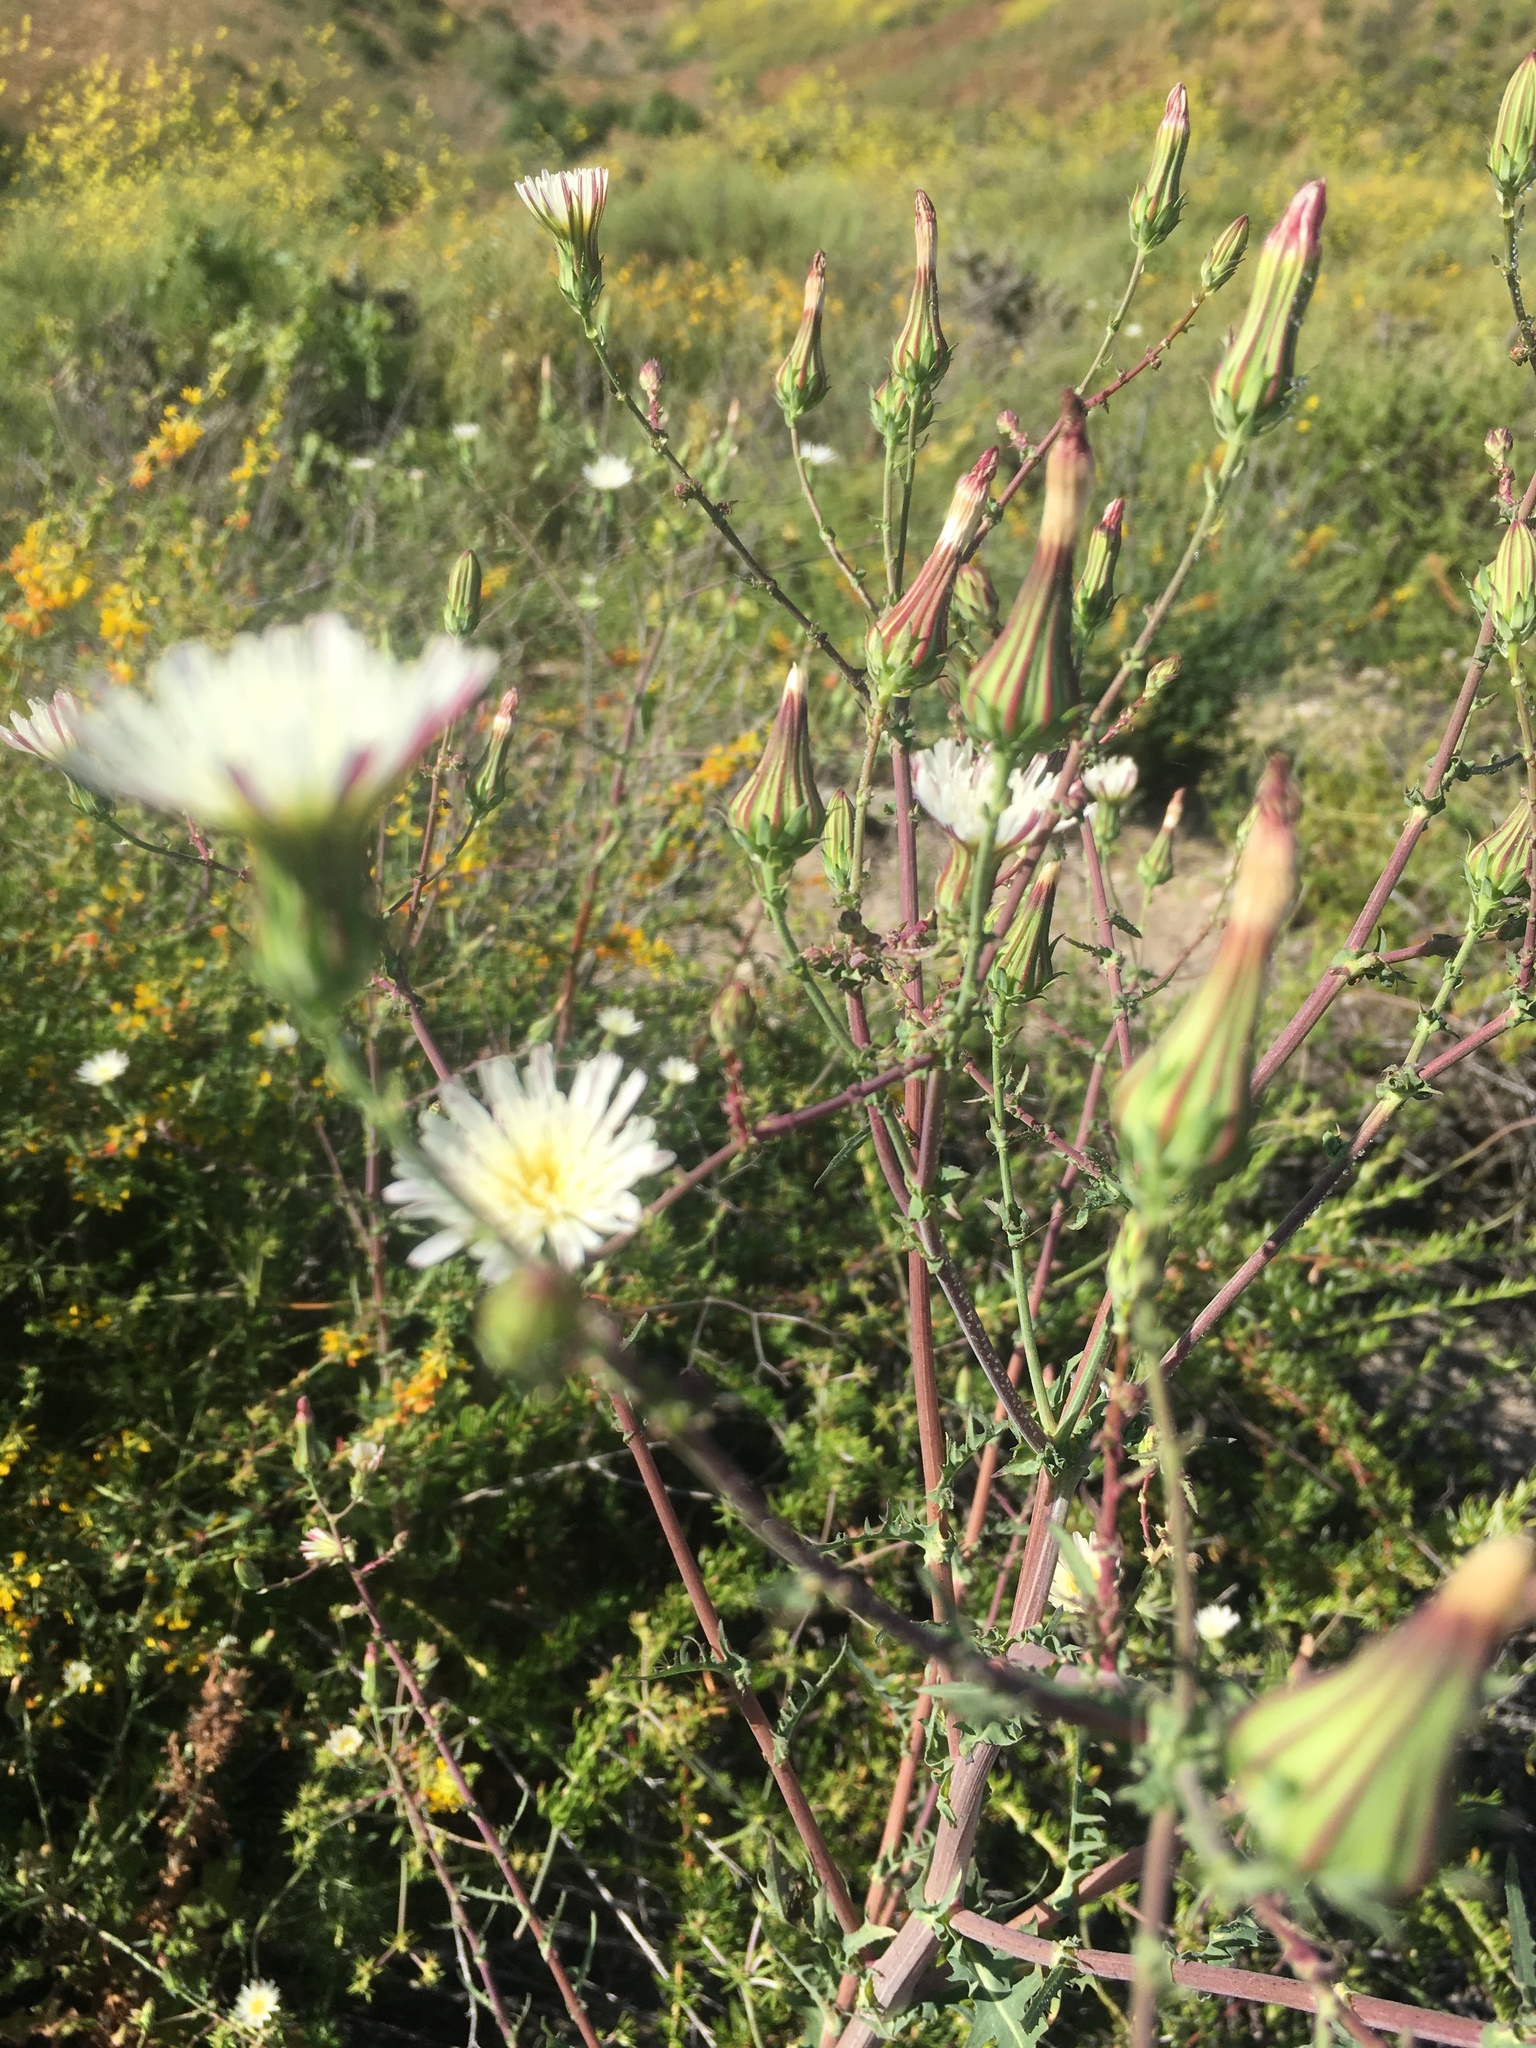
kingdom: Plantae
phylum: Tracheophyta
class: Magnoliopsida
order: Asterales
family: Asteraceae
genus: Rafinesquia
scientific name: Rafinesquia californica
